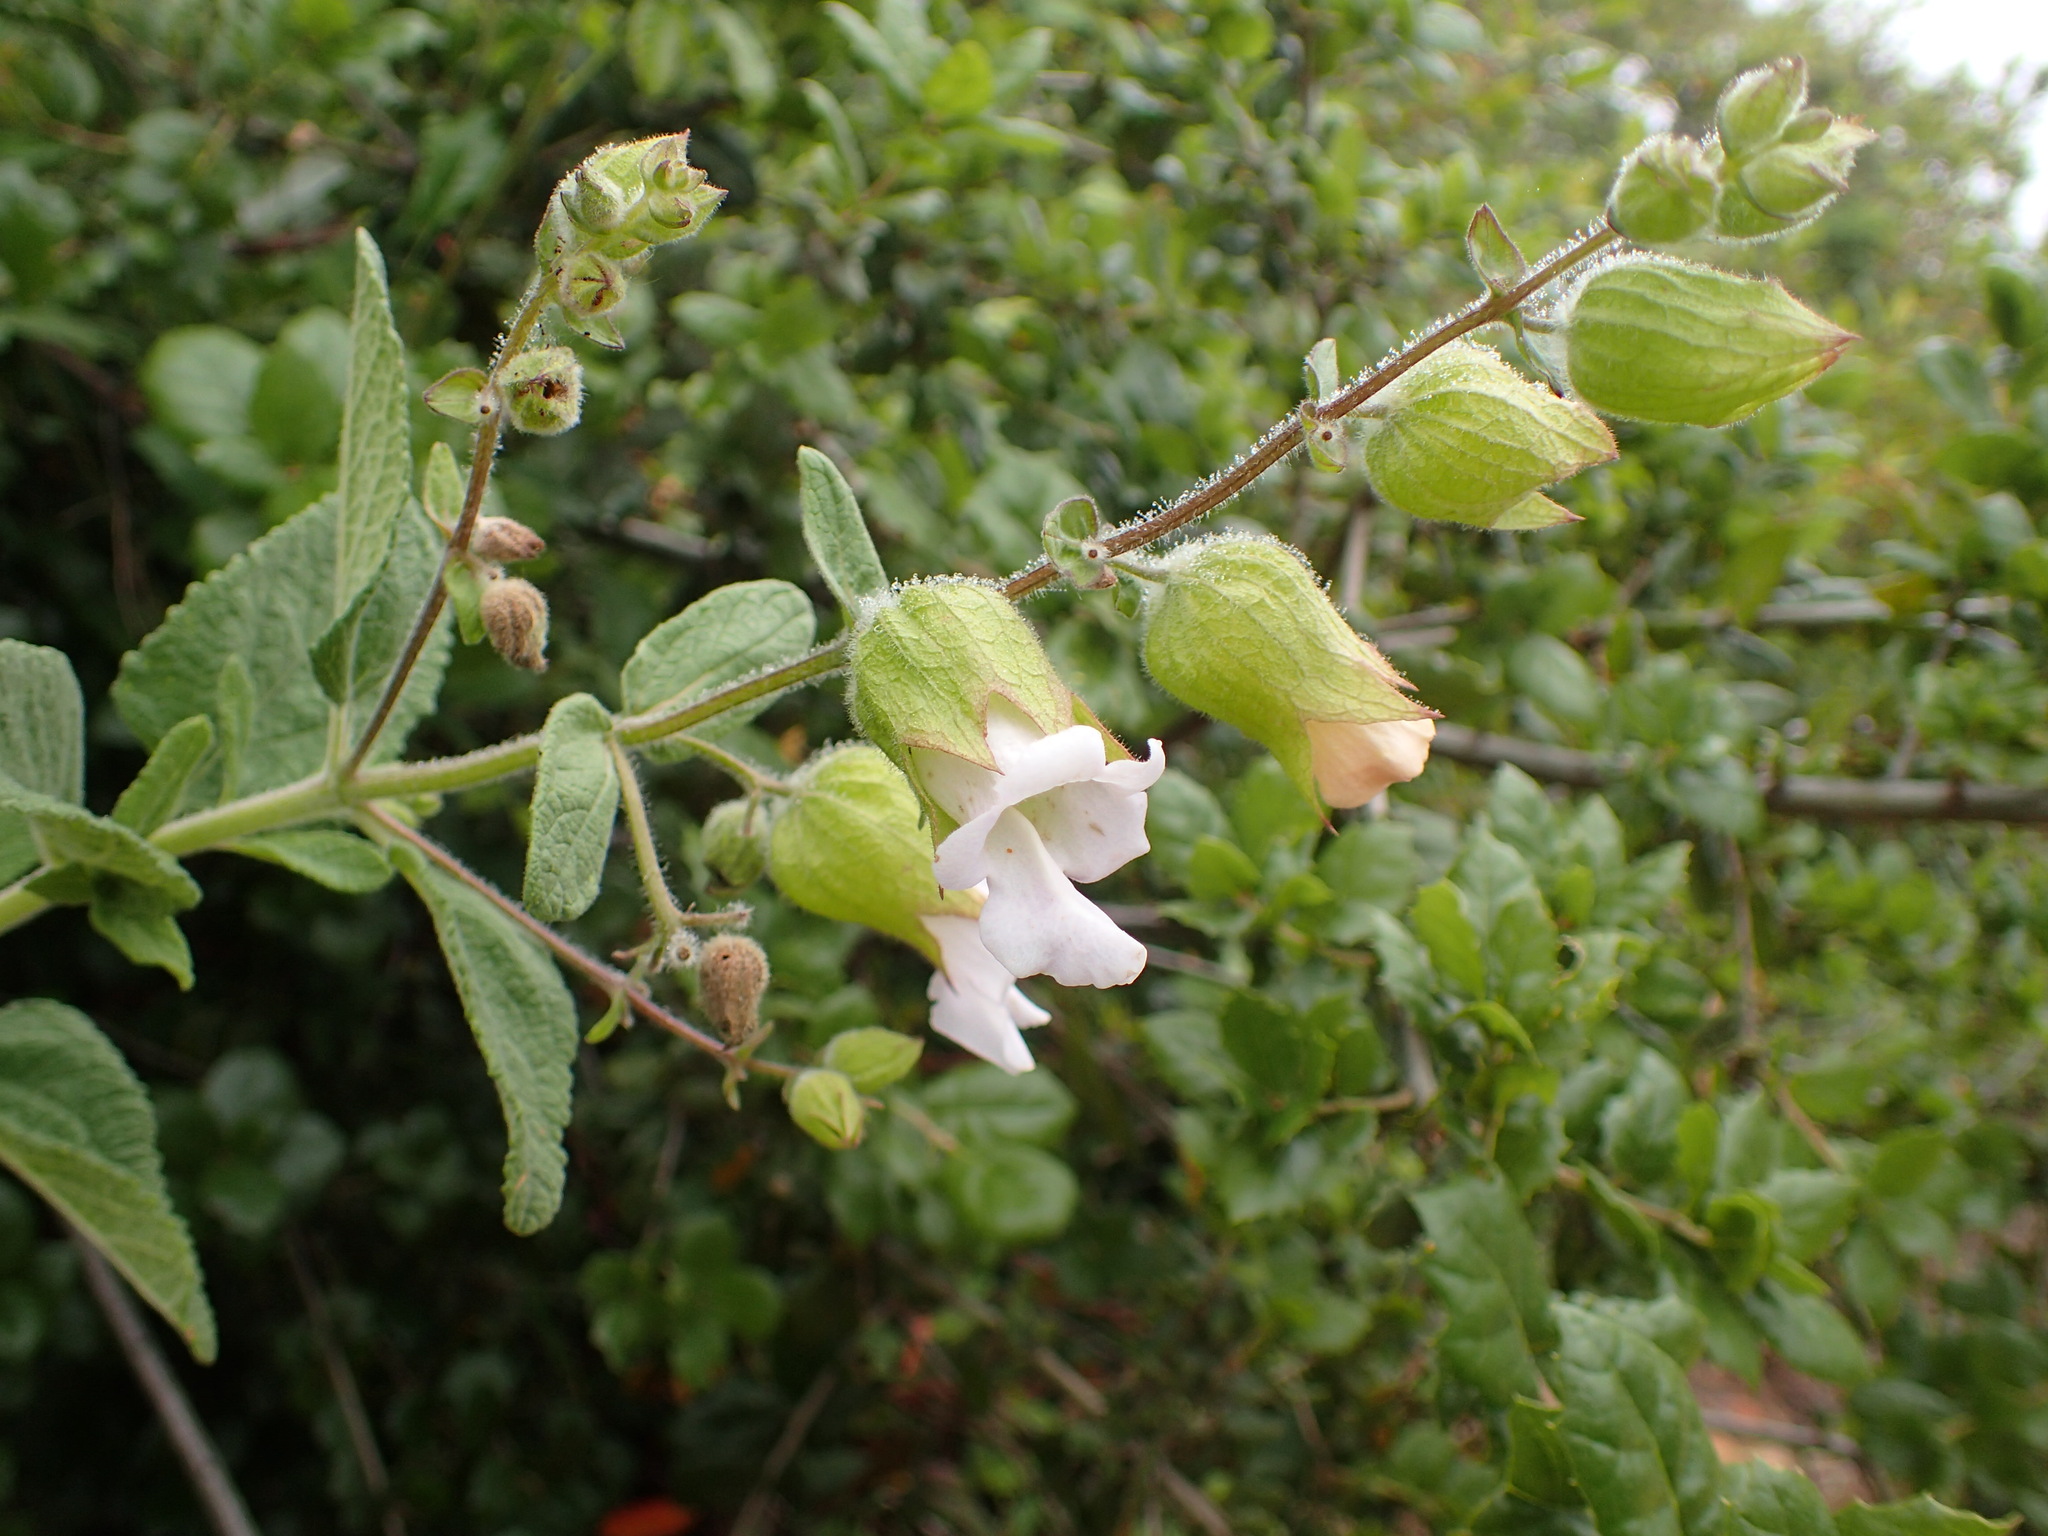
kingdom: Plantae
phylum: Tracheophyta
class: Magnoliopsida
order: Lamiales
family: Lamiaceae
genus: Lepechinia
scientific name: Lepechinia calycina
